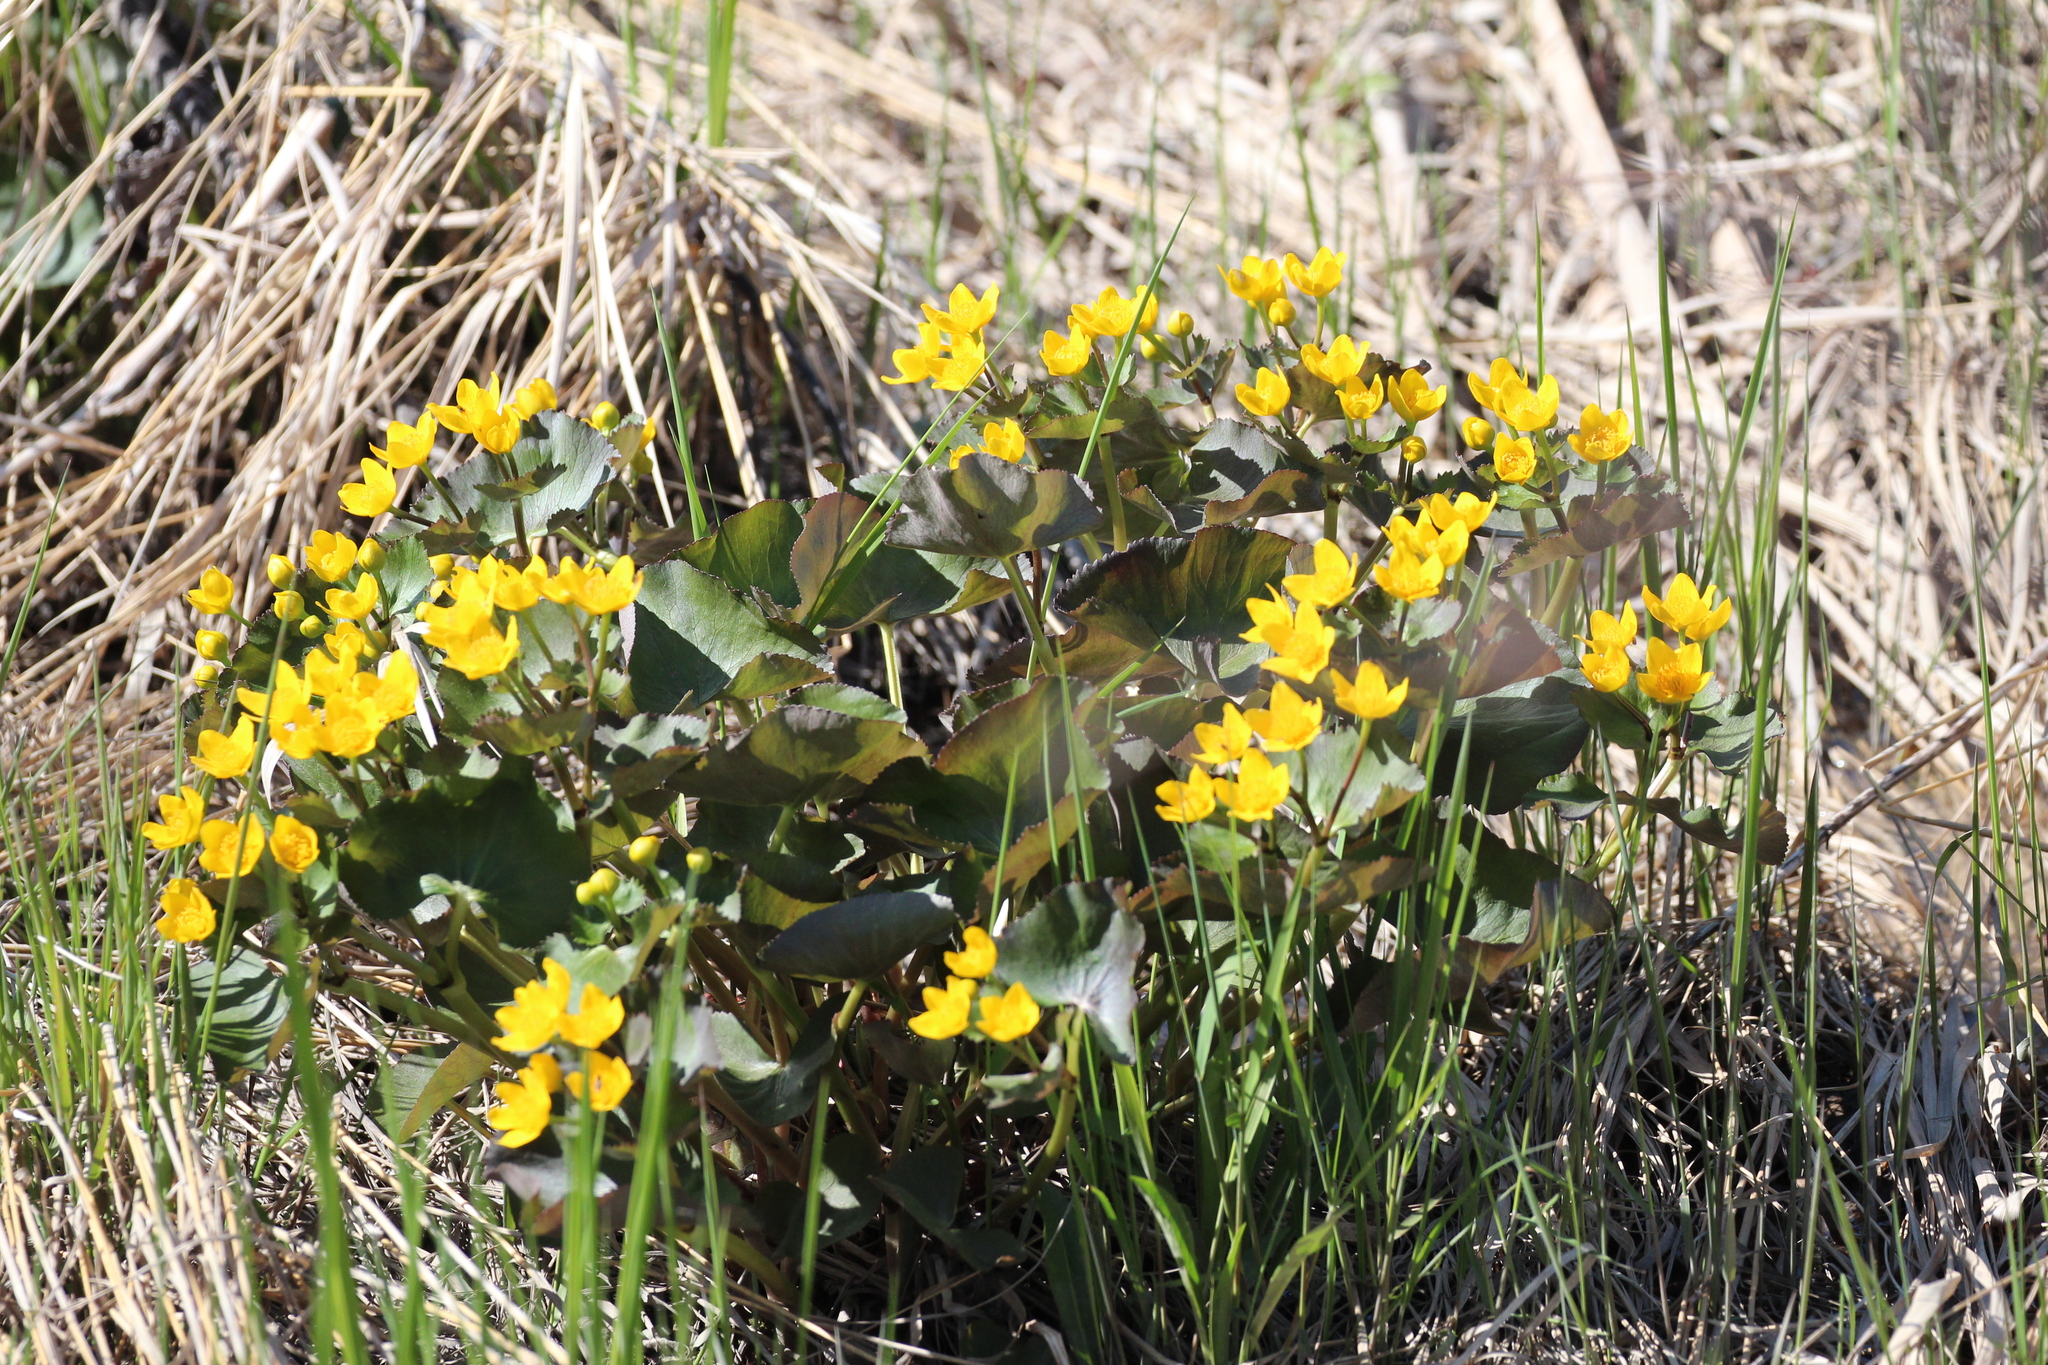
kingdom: Plantae
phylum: Tracheophyta
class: Magnoliopsida
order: Ranunculales
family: Ranunculaceae
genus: Caltha
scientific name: Caltha palustris
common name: Marsh marigold
